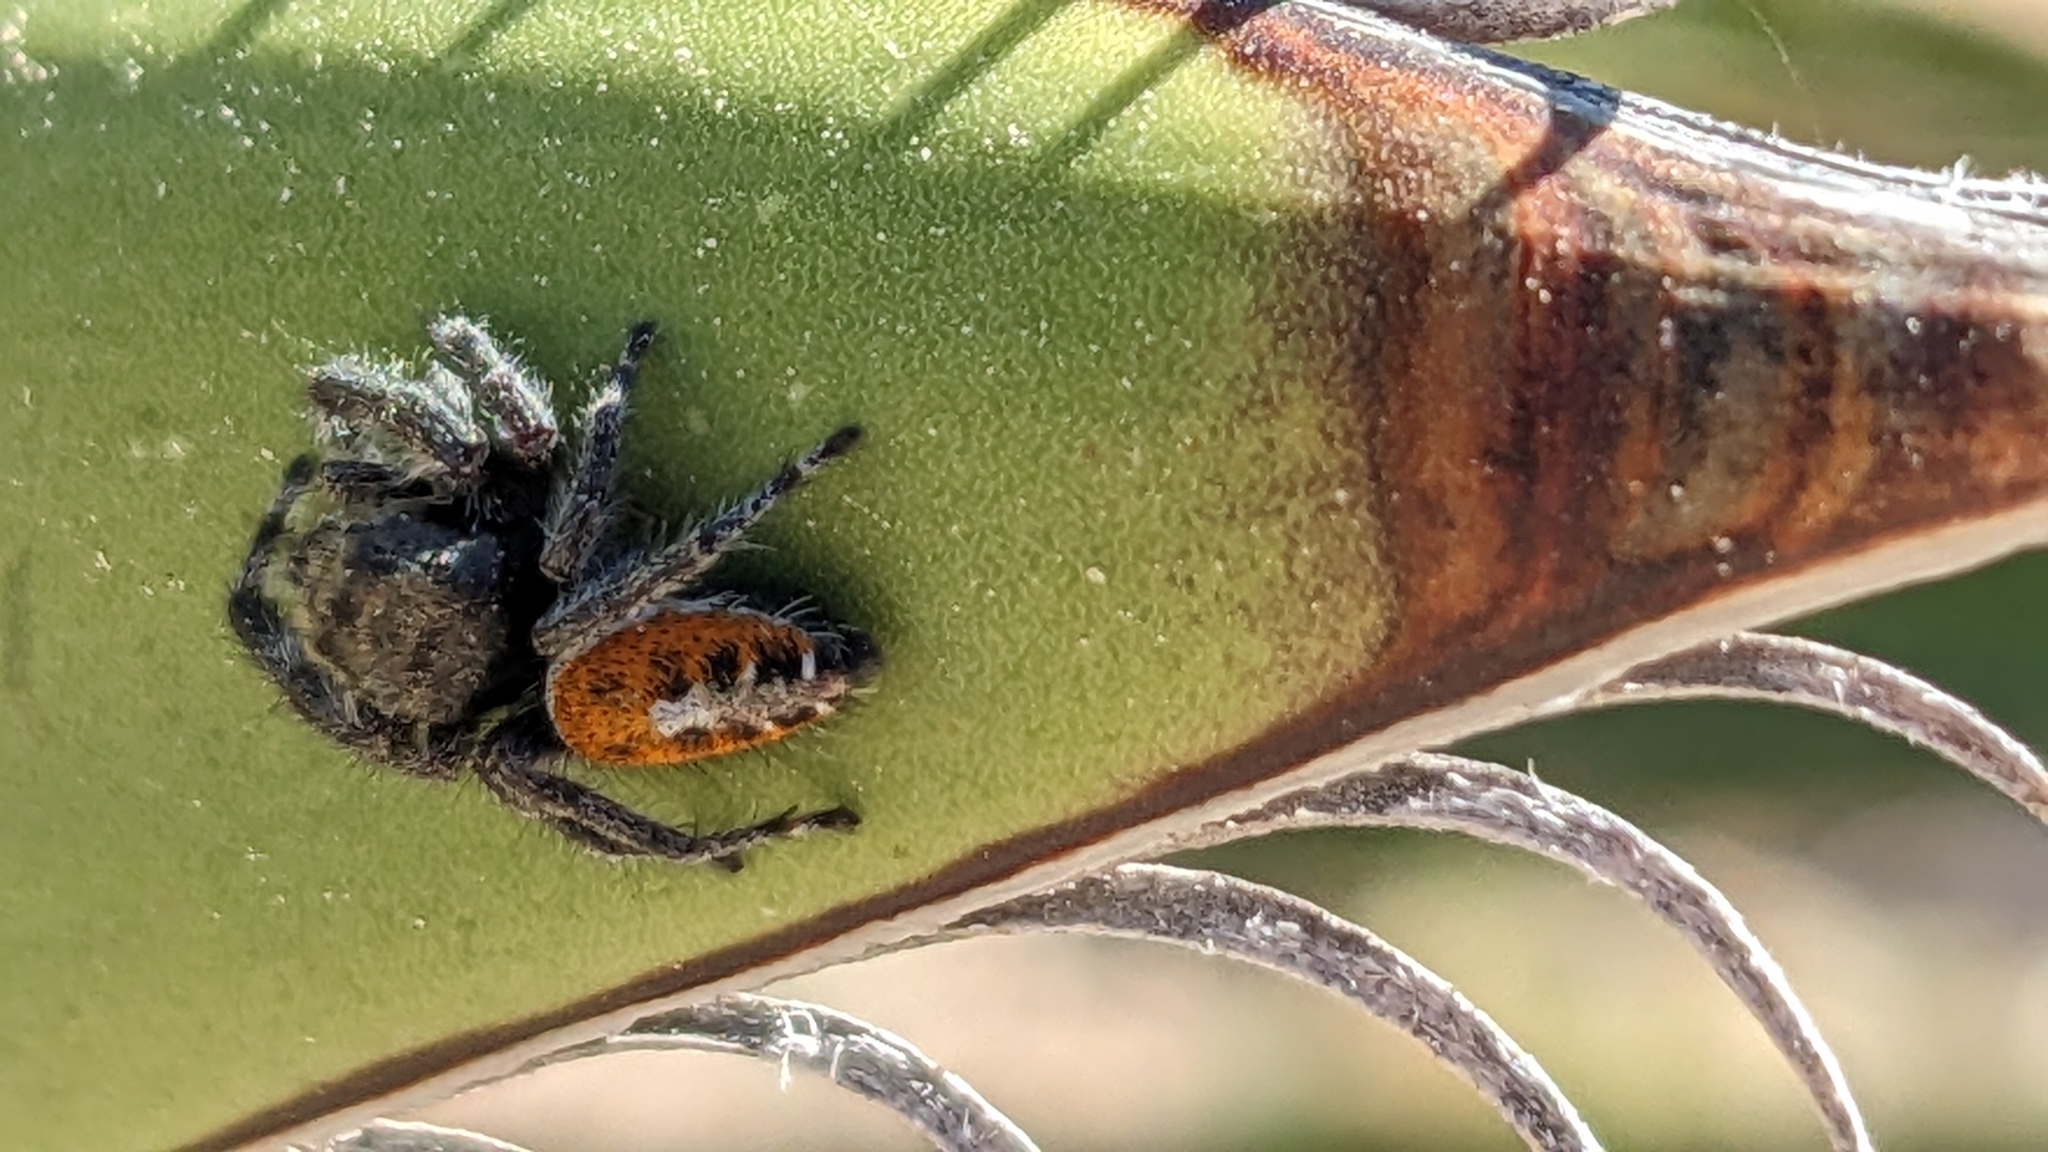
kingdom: Animalia
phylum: Arthropoda
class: Arachnida
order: Araneae
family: Salticidae
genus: Phidippus
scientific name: Phidippus vexans
